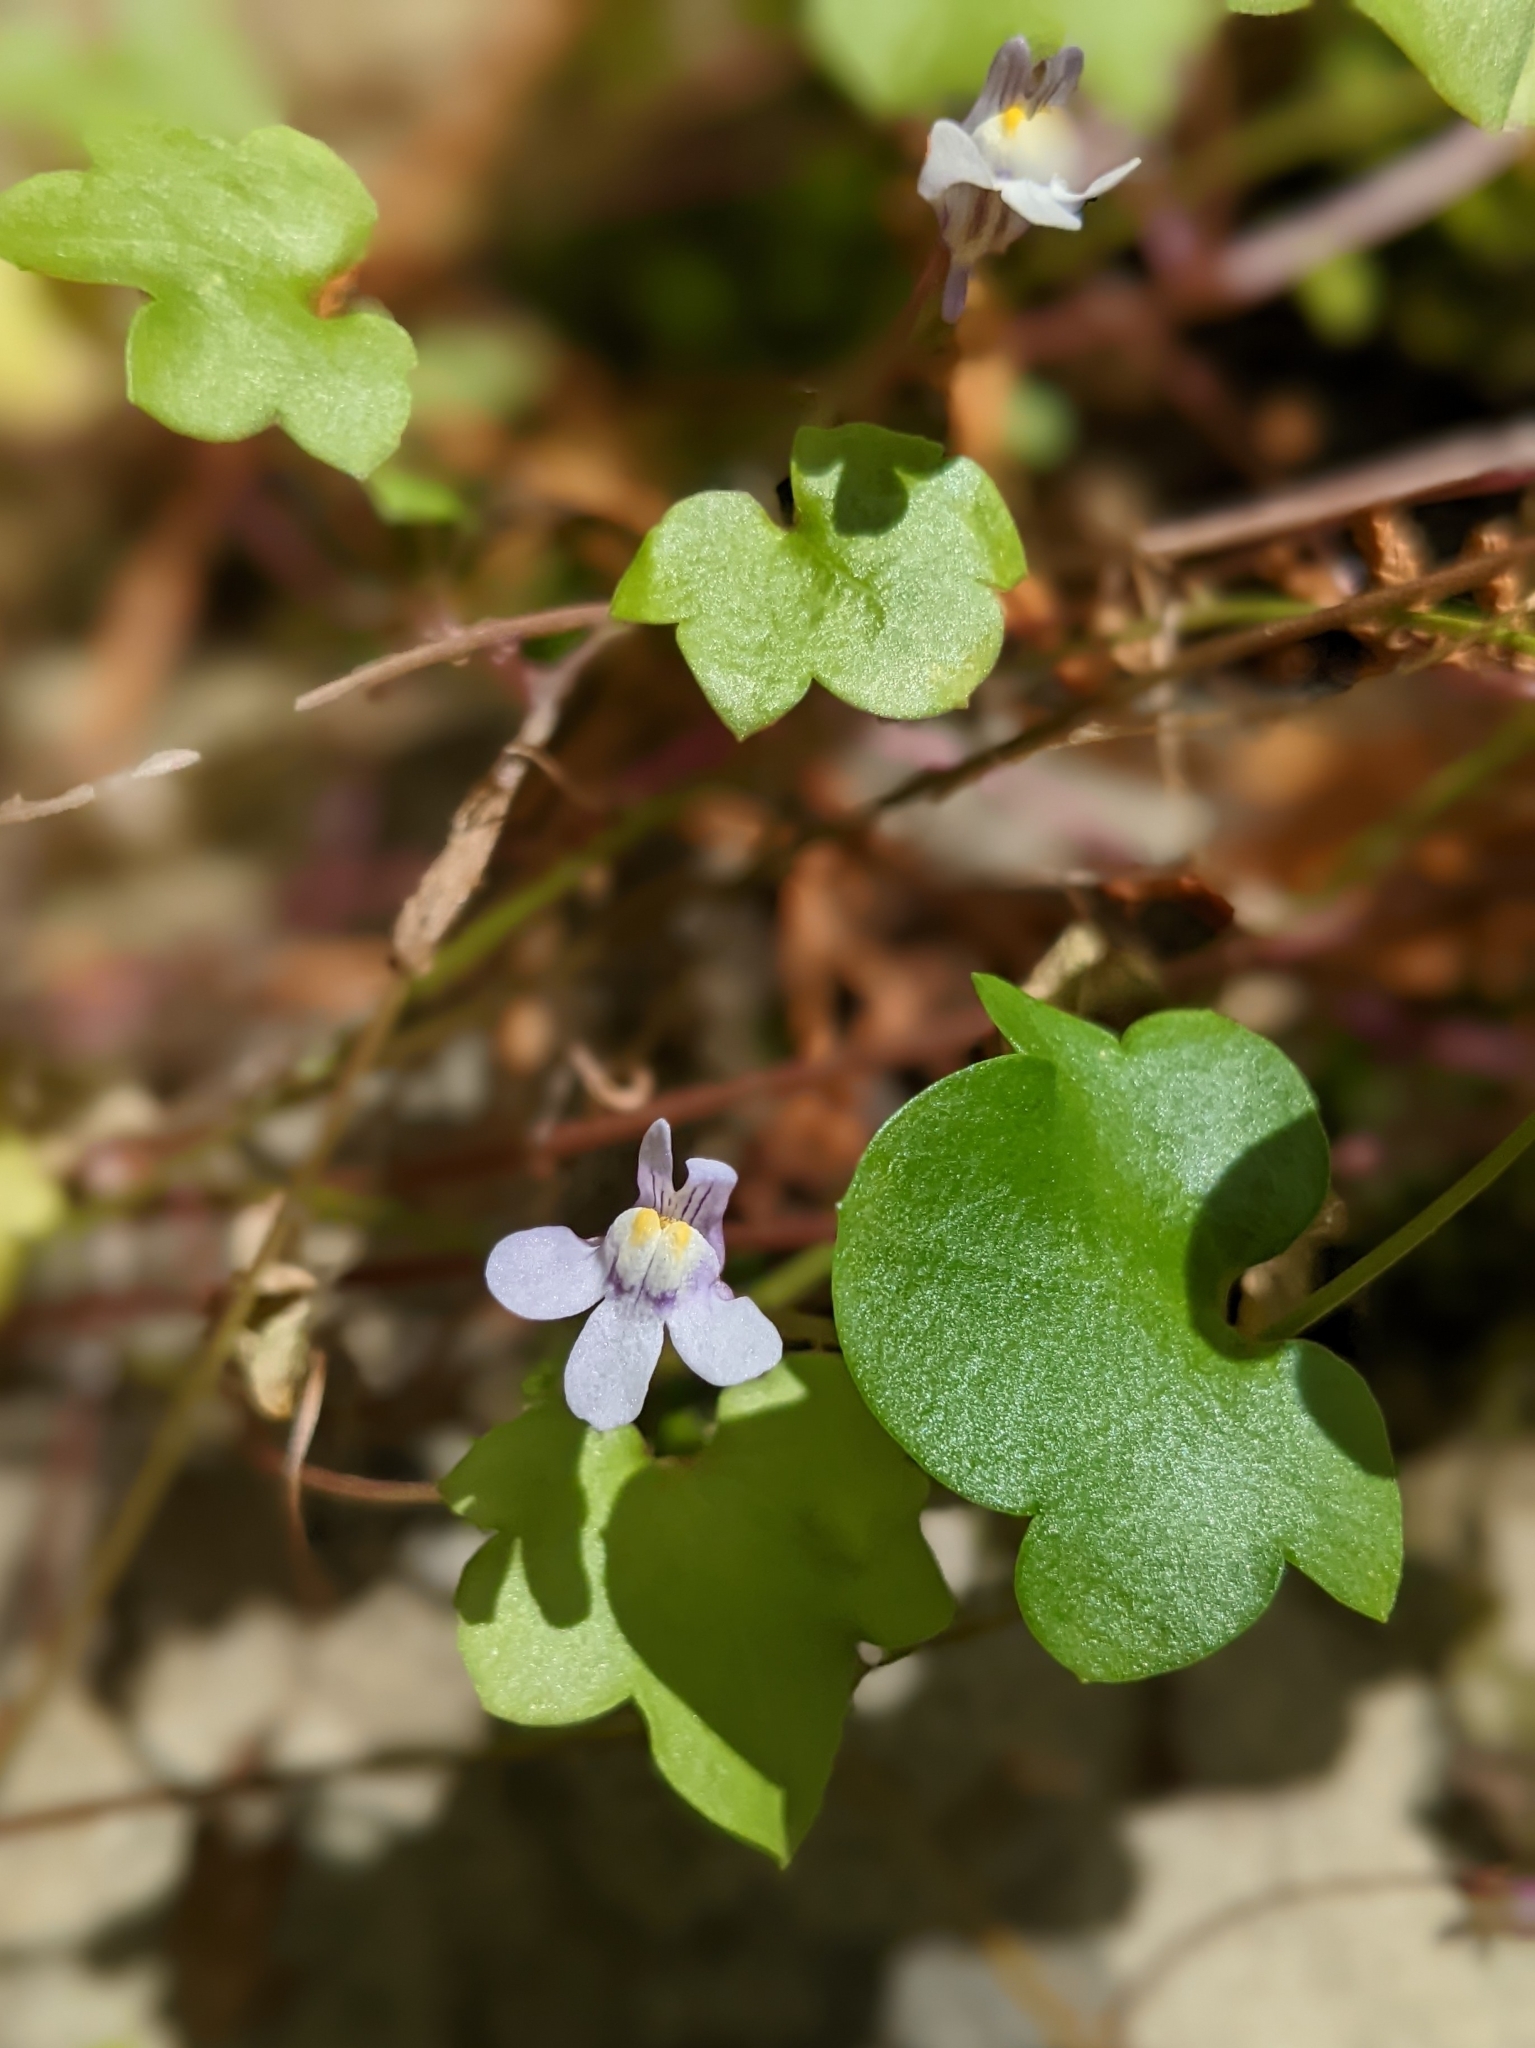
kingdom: Plantae
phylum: Tracheophyta
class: Magnoliopsida
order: Lamiales
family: Plantaginaceae
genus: Cymbalaria
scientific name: Cymbalaria muralis
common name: Ivy-leaved toadflax
